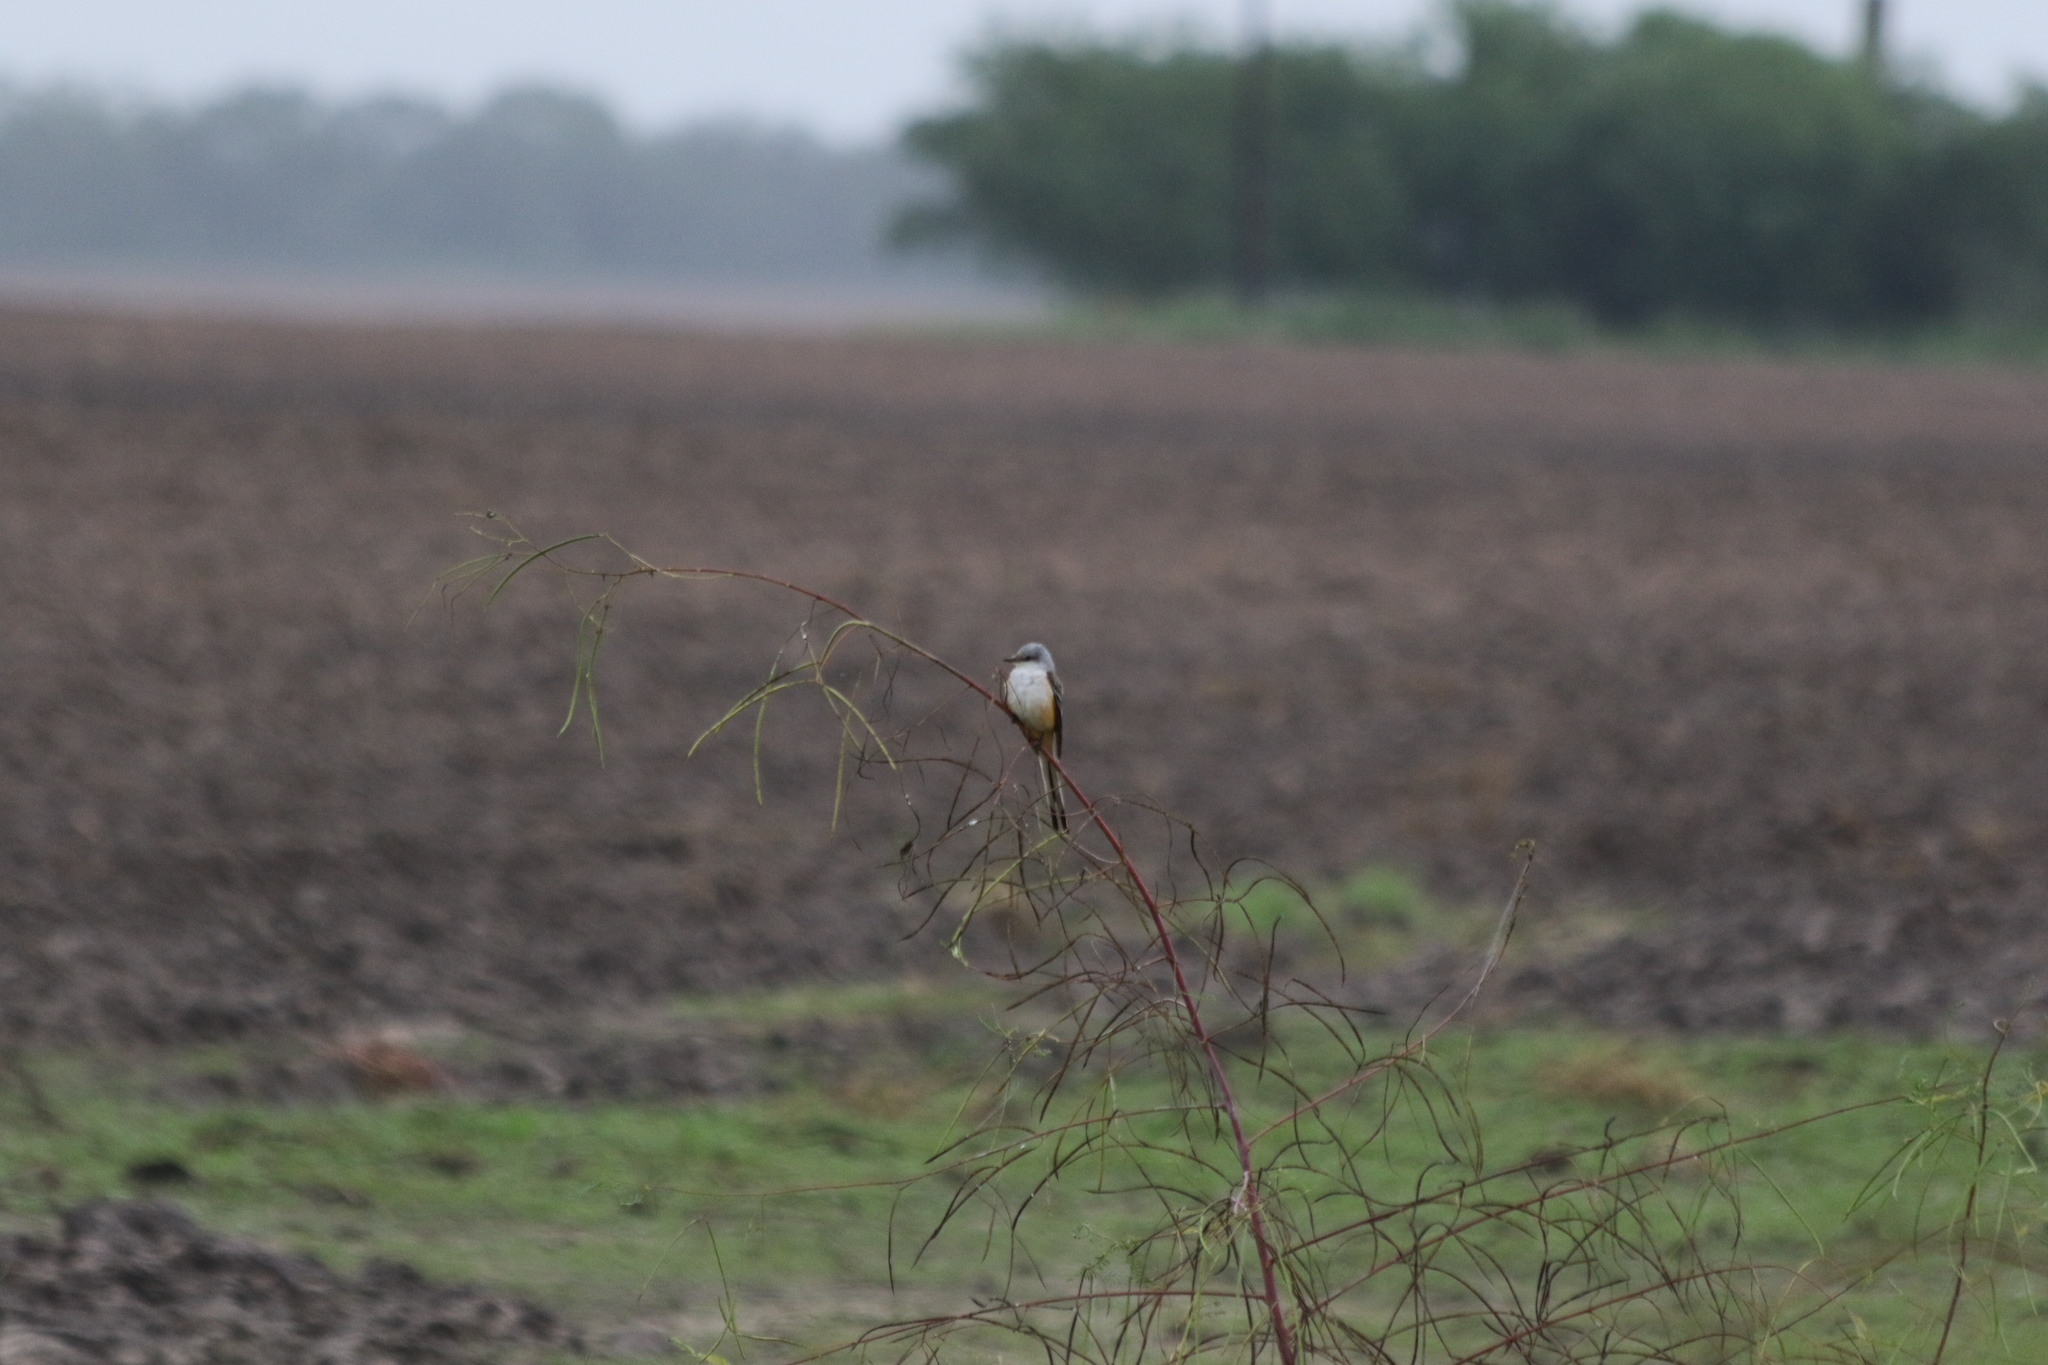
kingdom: Animalia
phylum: Chordata
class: Aves
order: Passeriformes
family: Tyrannidae
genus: Tyrannus
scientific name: Tyrannus forficatus
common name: Scissor-tailed flycatcher
